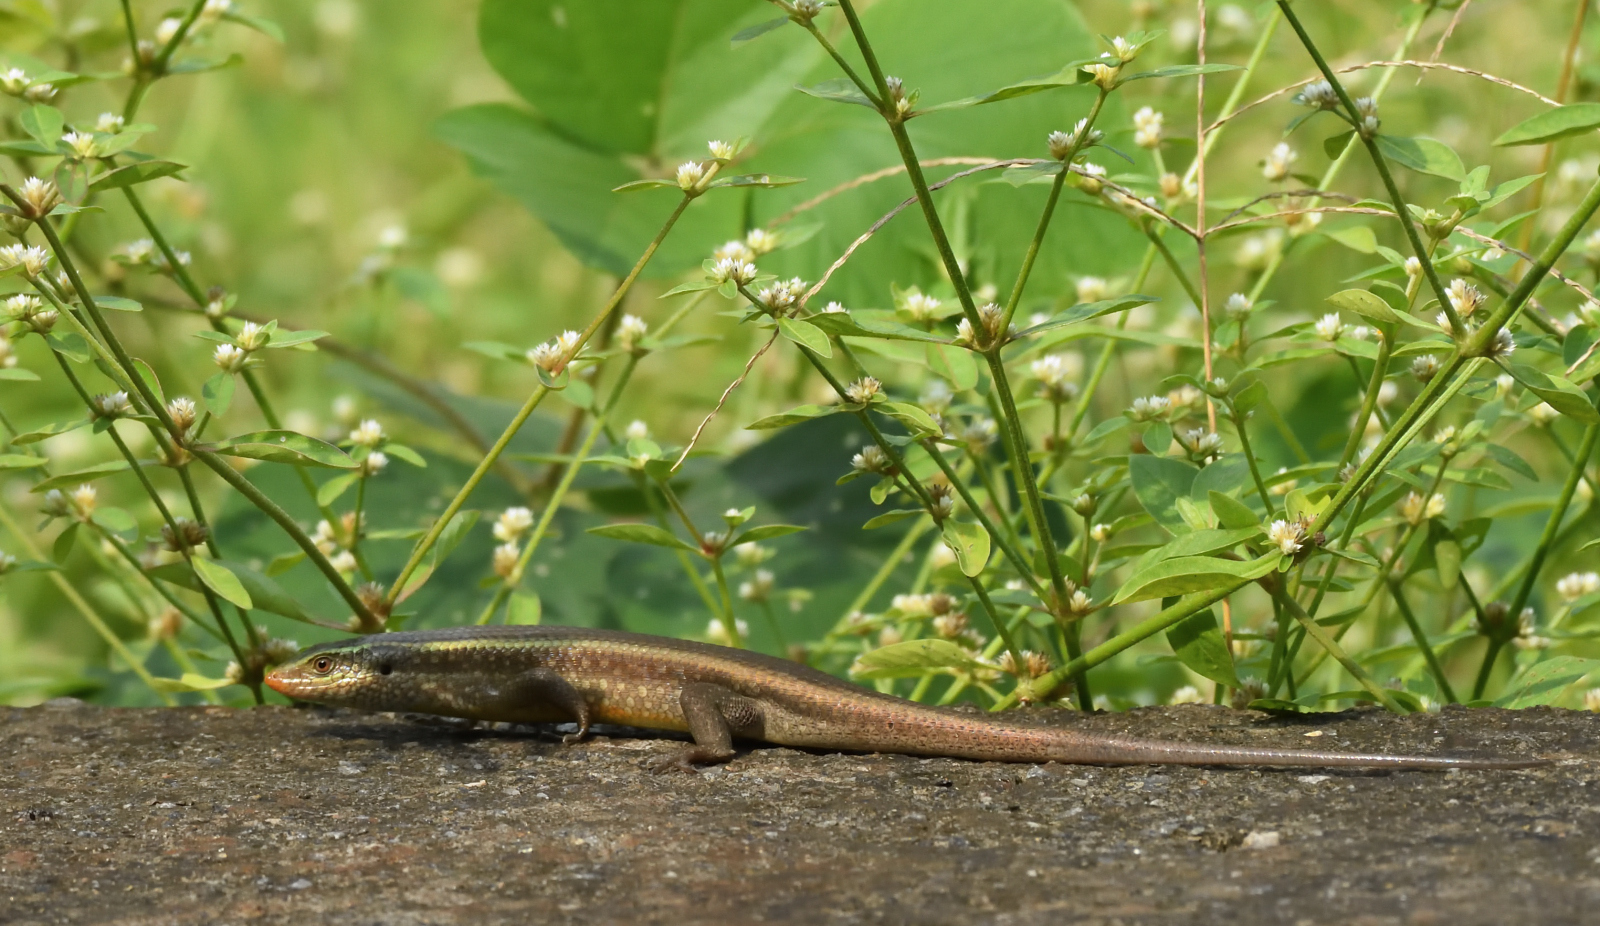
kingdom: Animalia
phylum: Chordata
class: Squamata
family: Scincidae
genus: Eutropis
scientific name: Eutropis carinata
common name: Keeled indian mabuya
